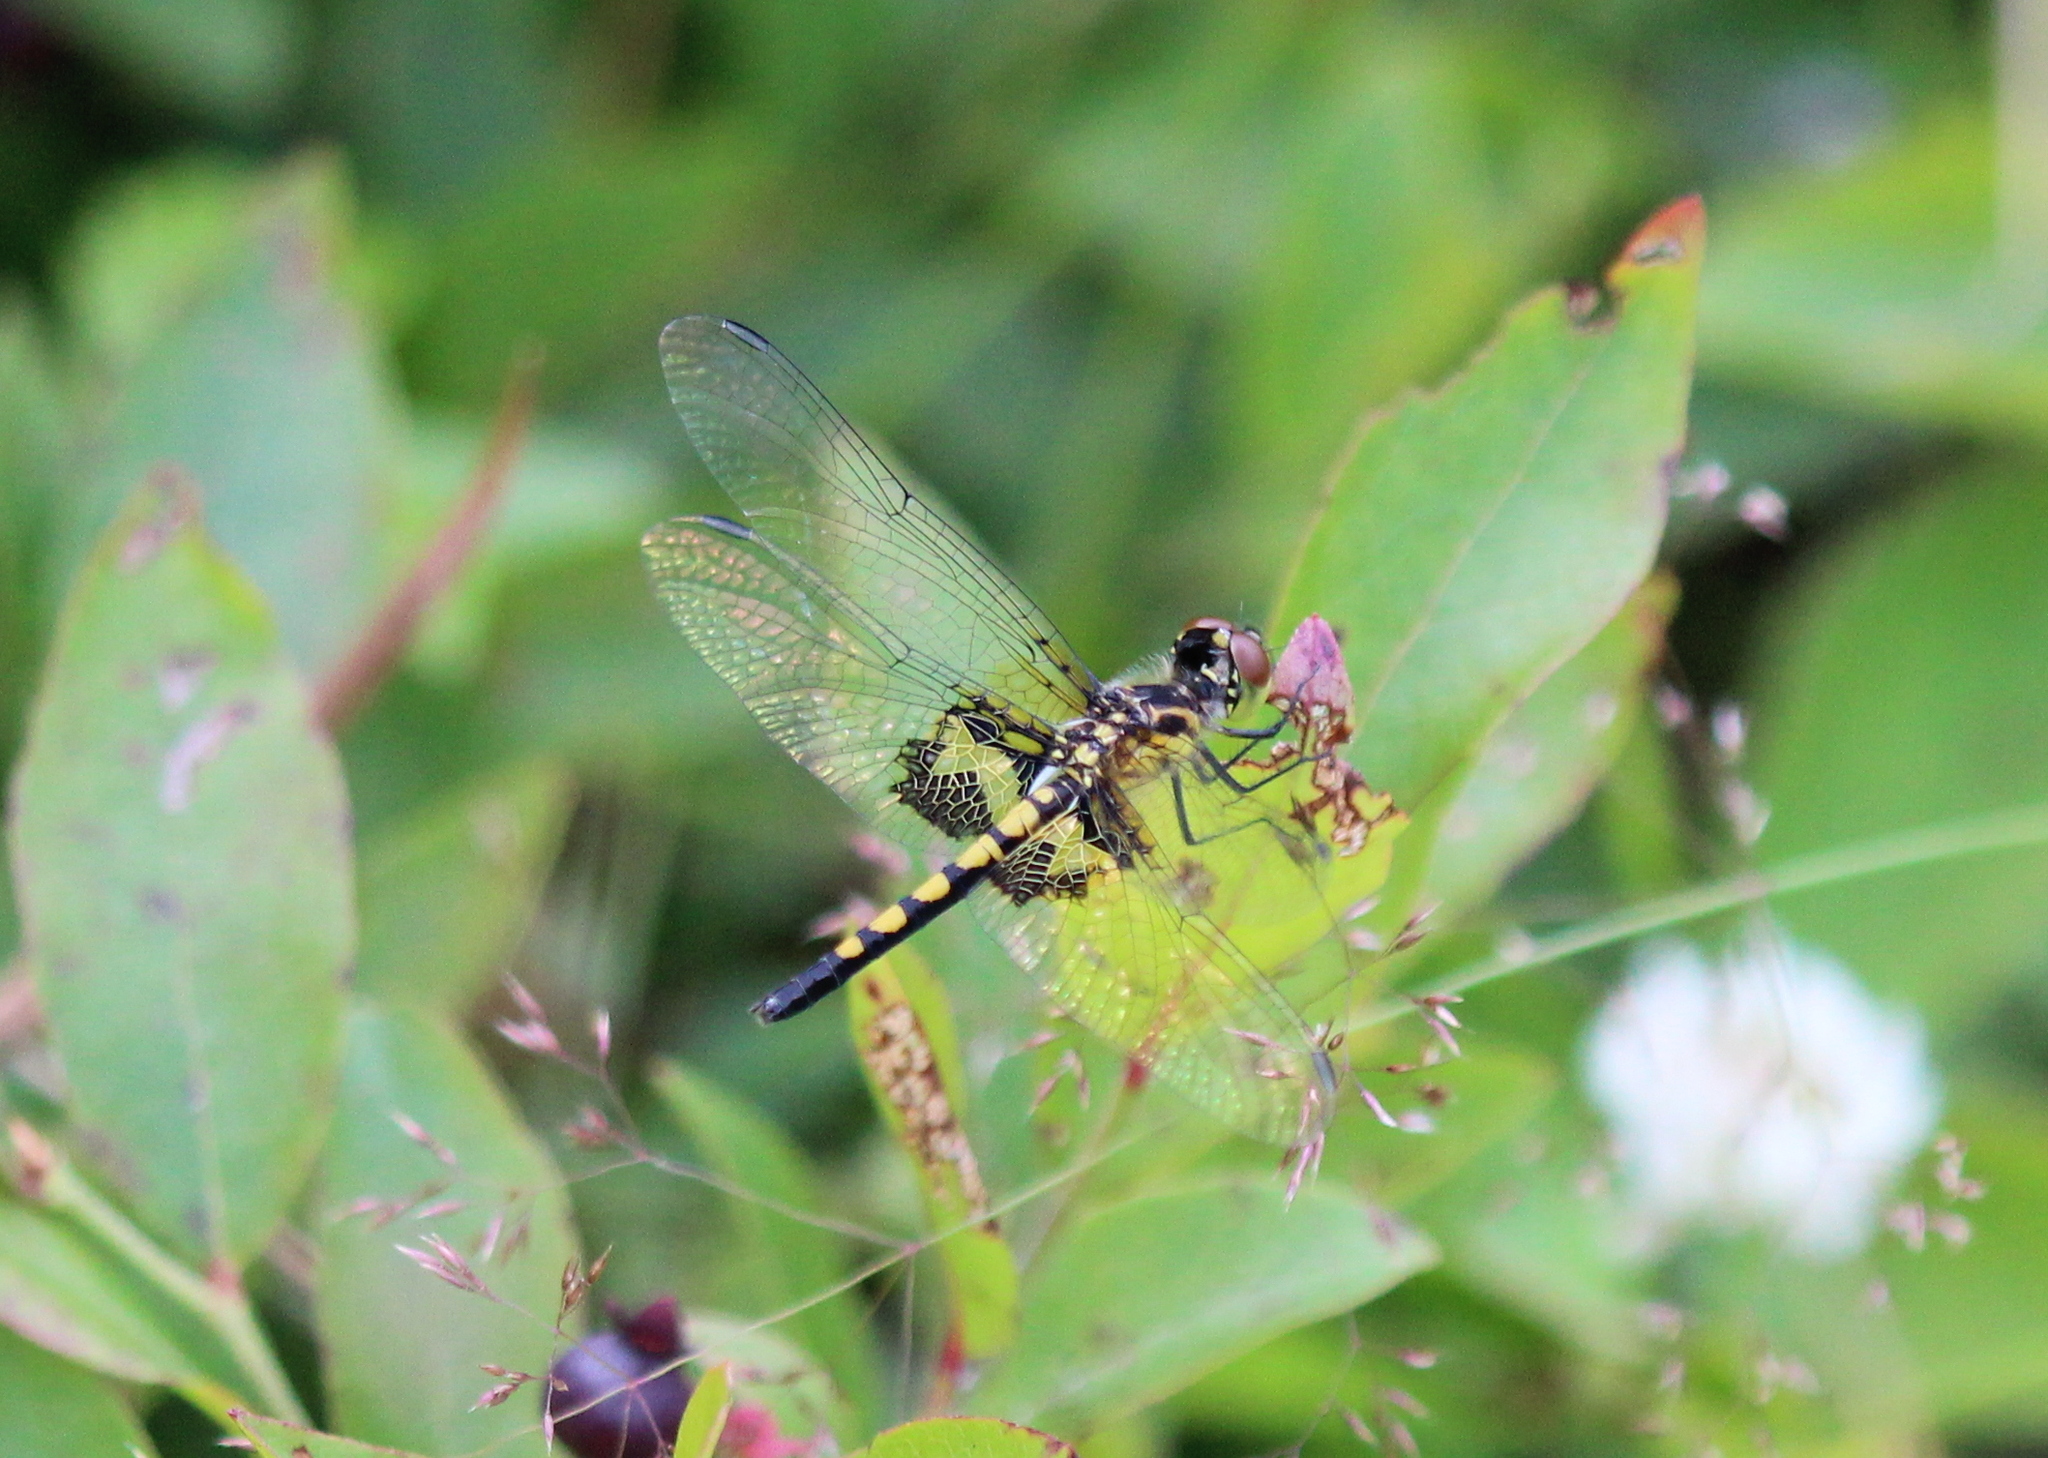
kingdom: Animalia
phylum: Arthropoda
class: Insecta
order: Odonata
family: Libellulidae
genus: Celithemis
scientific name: Celithemis martha
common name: Martha's pennant
